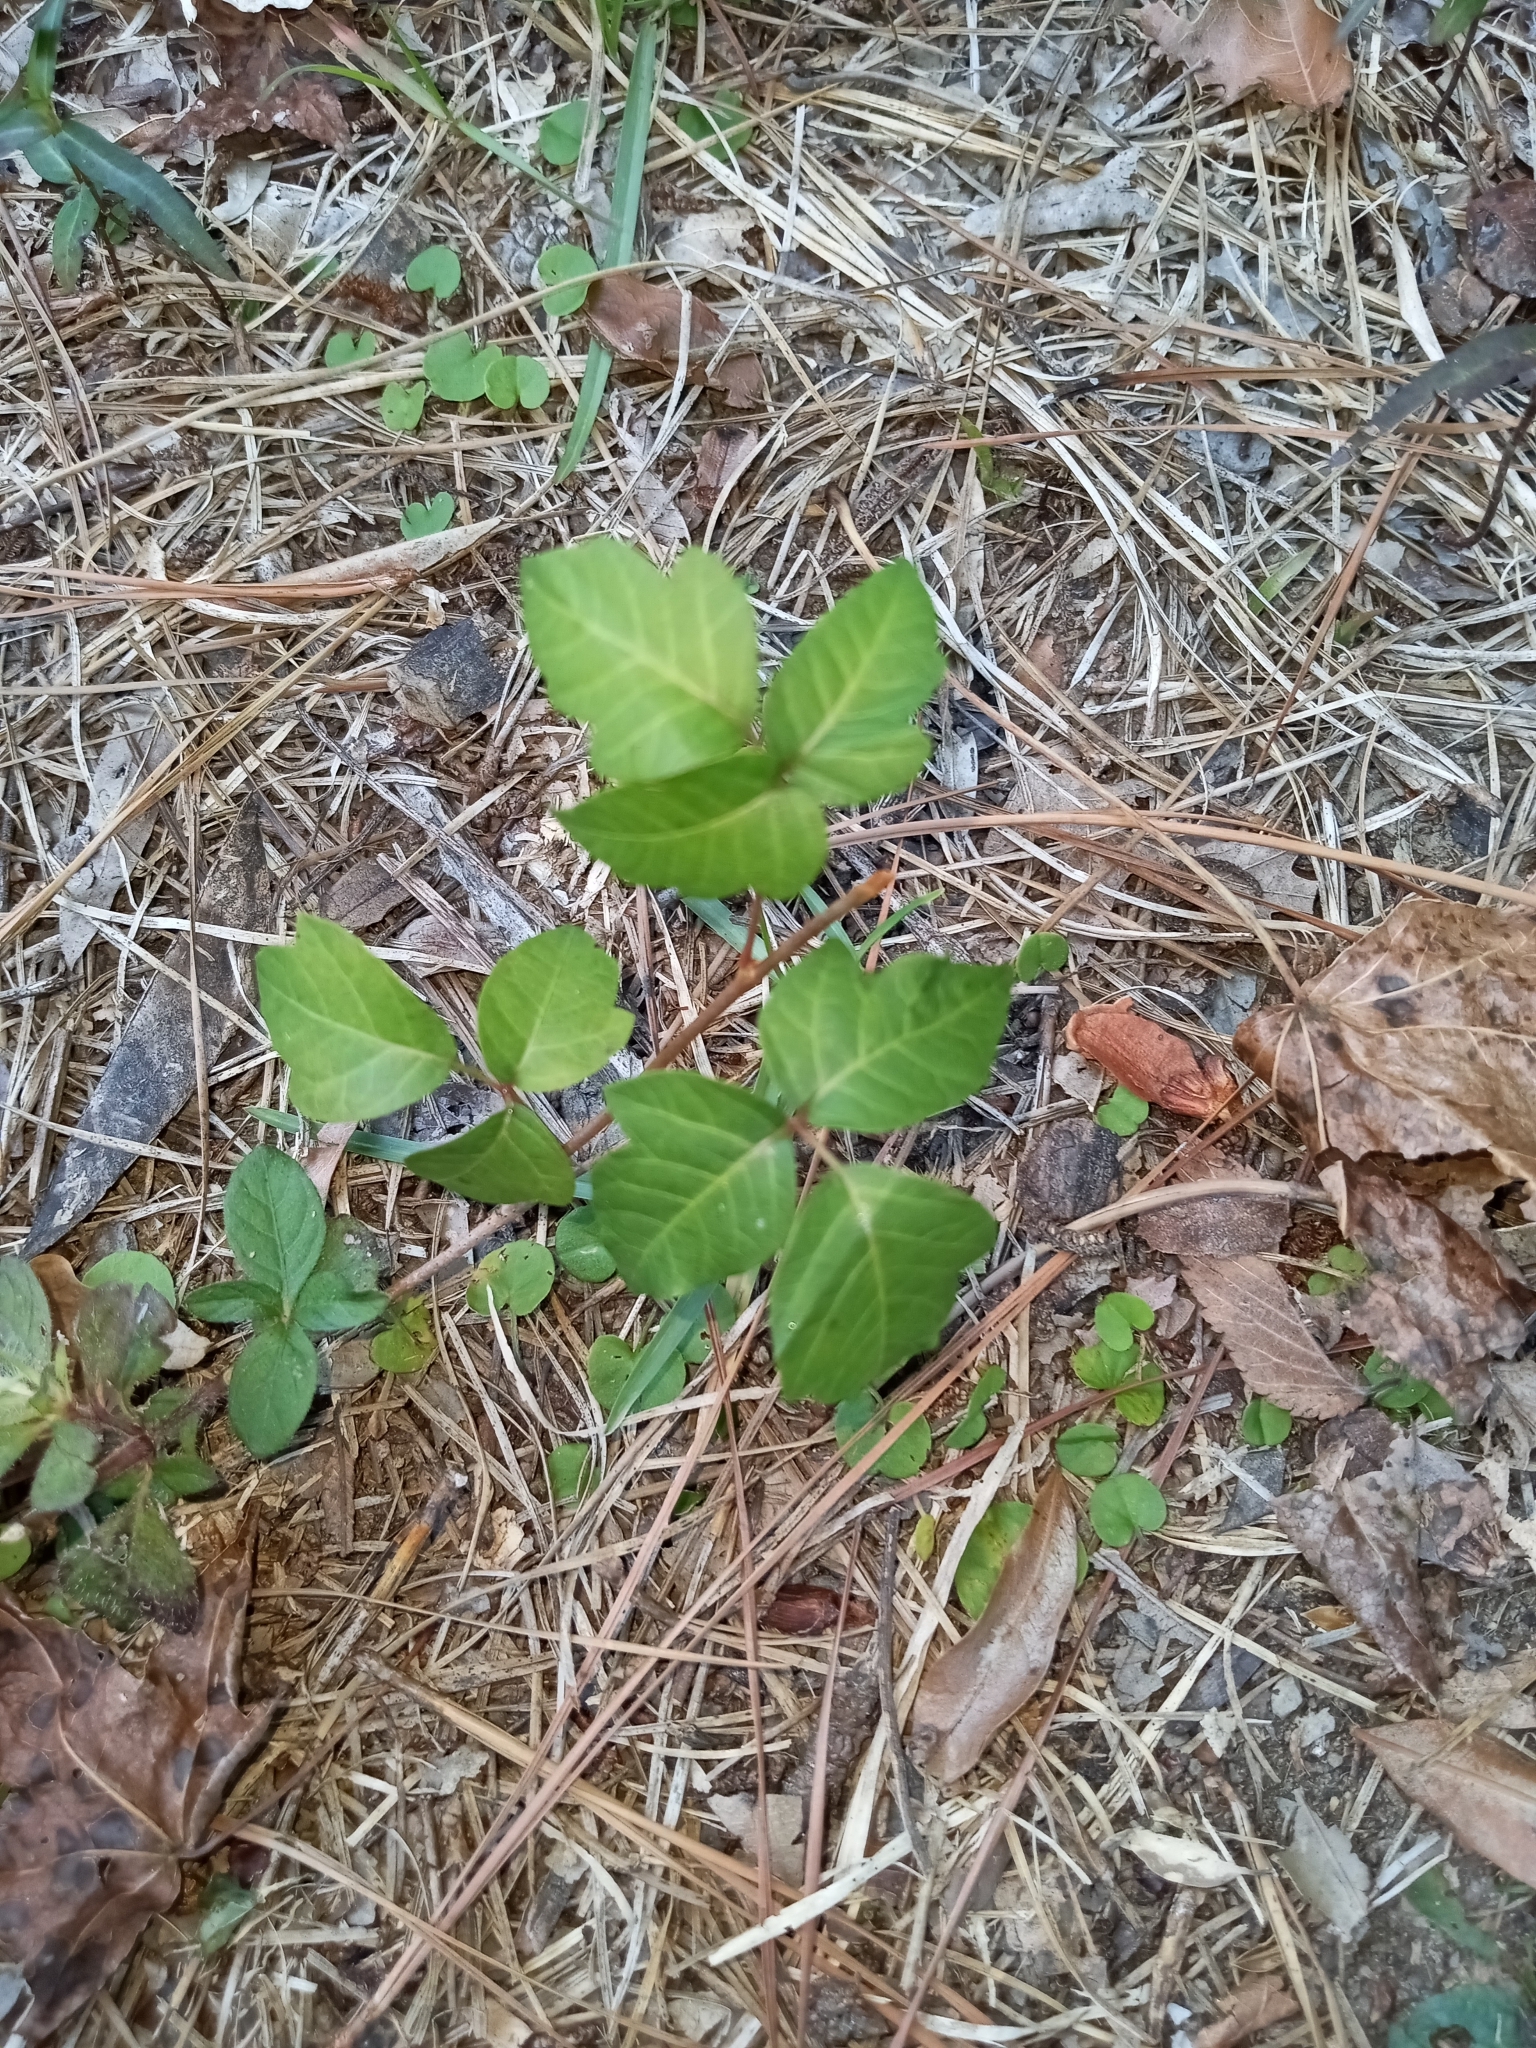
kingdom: Plantae
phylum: Tracheophyta
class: Magnoliopsida
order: Sapindales
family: Anacardiaceae
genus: Toxicodendron
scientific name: Toxicodendron radicans
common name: Poison ivy
